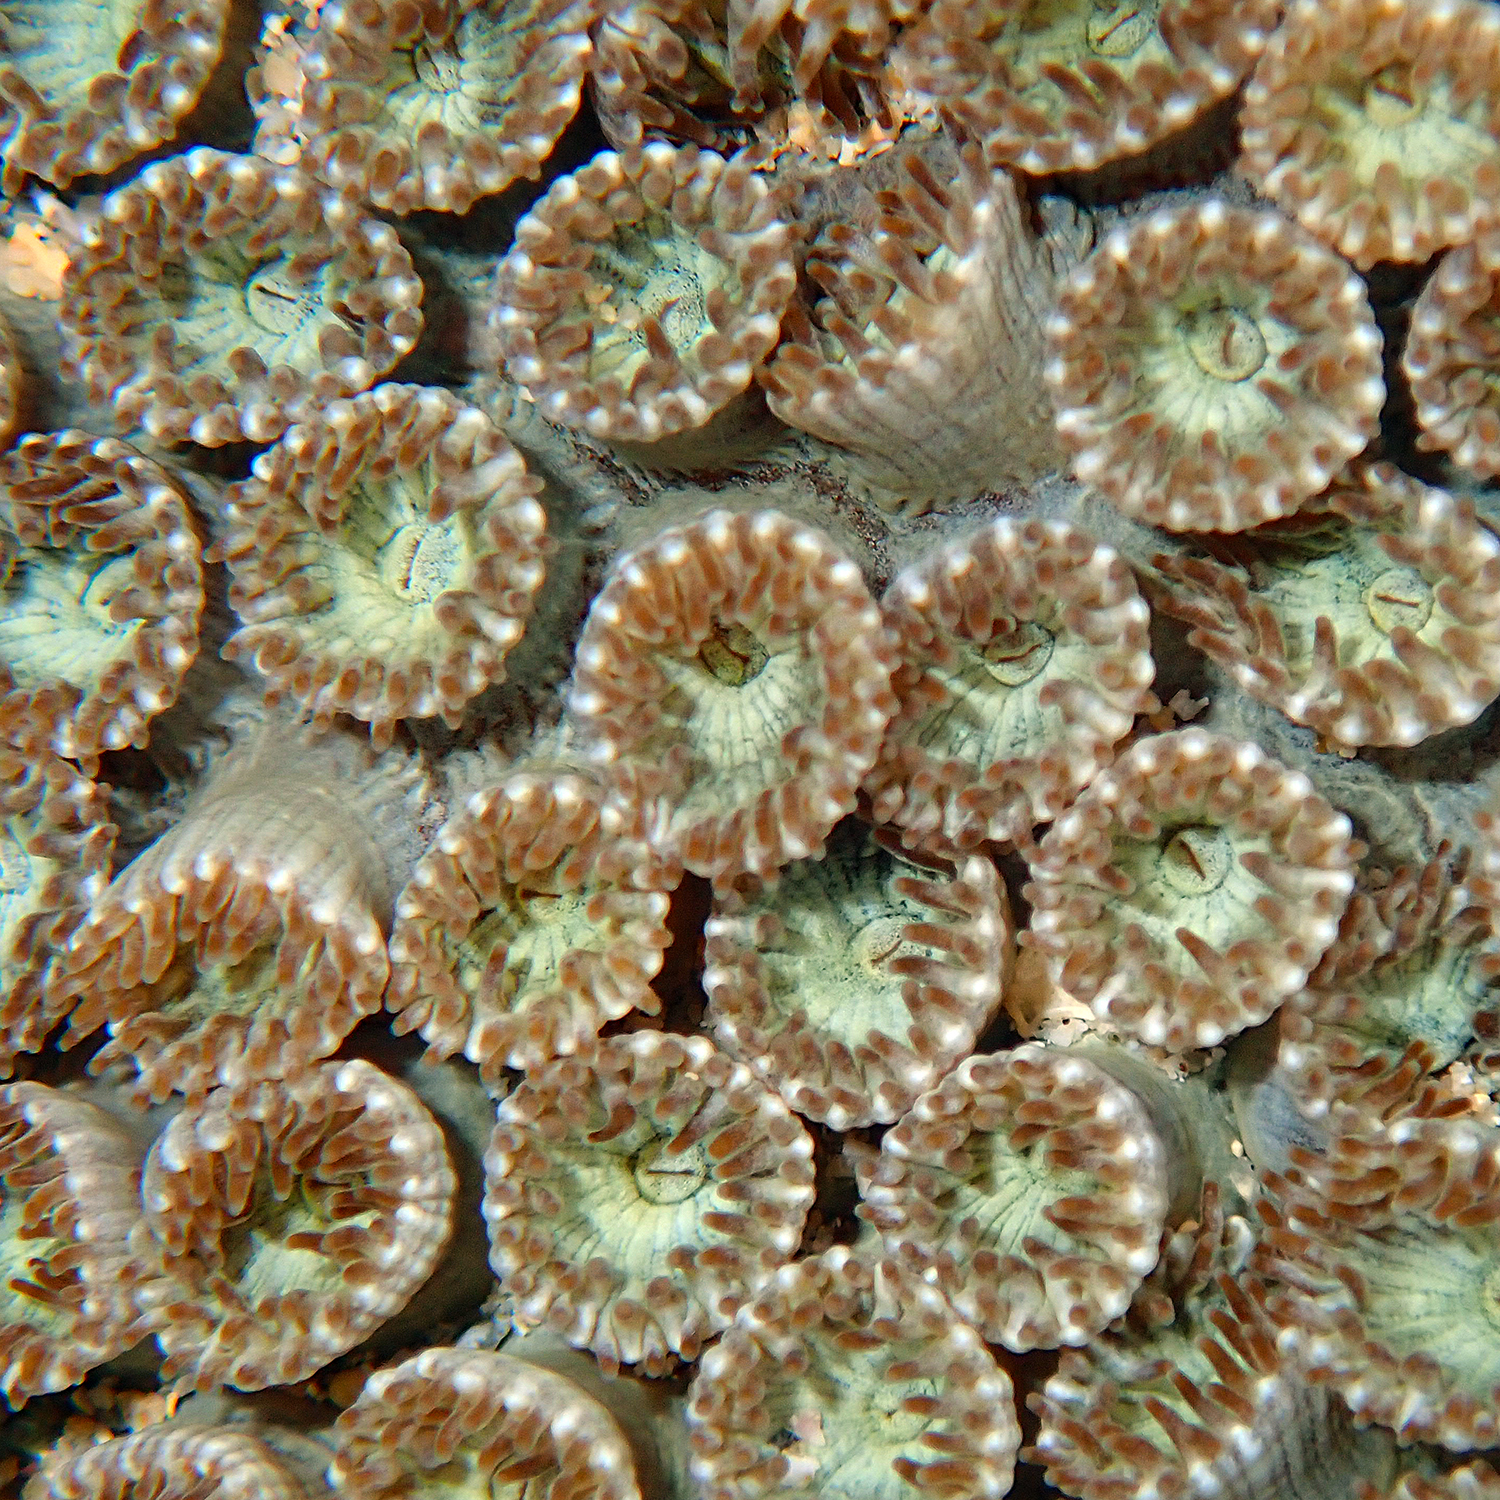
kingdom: Animalia
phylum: Cnidaria
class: Anthozoa
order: Scleractinia
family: Plesiastreidae
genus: Plesiastrea
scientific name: Plesiastrea versipora
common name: Small knob coral
